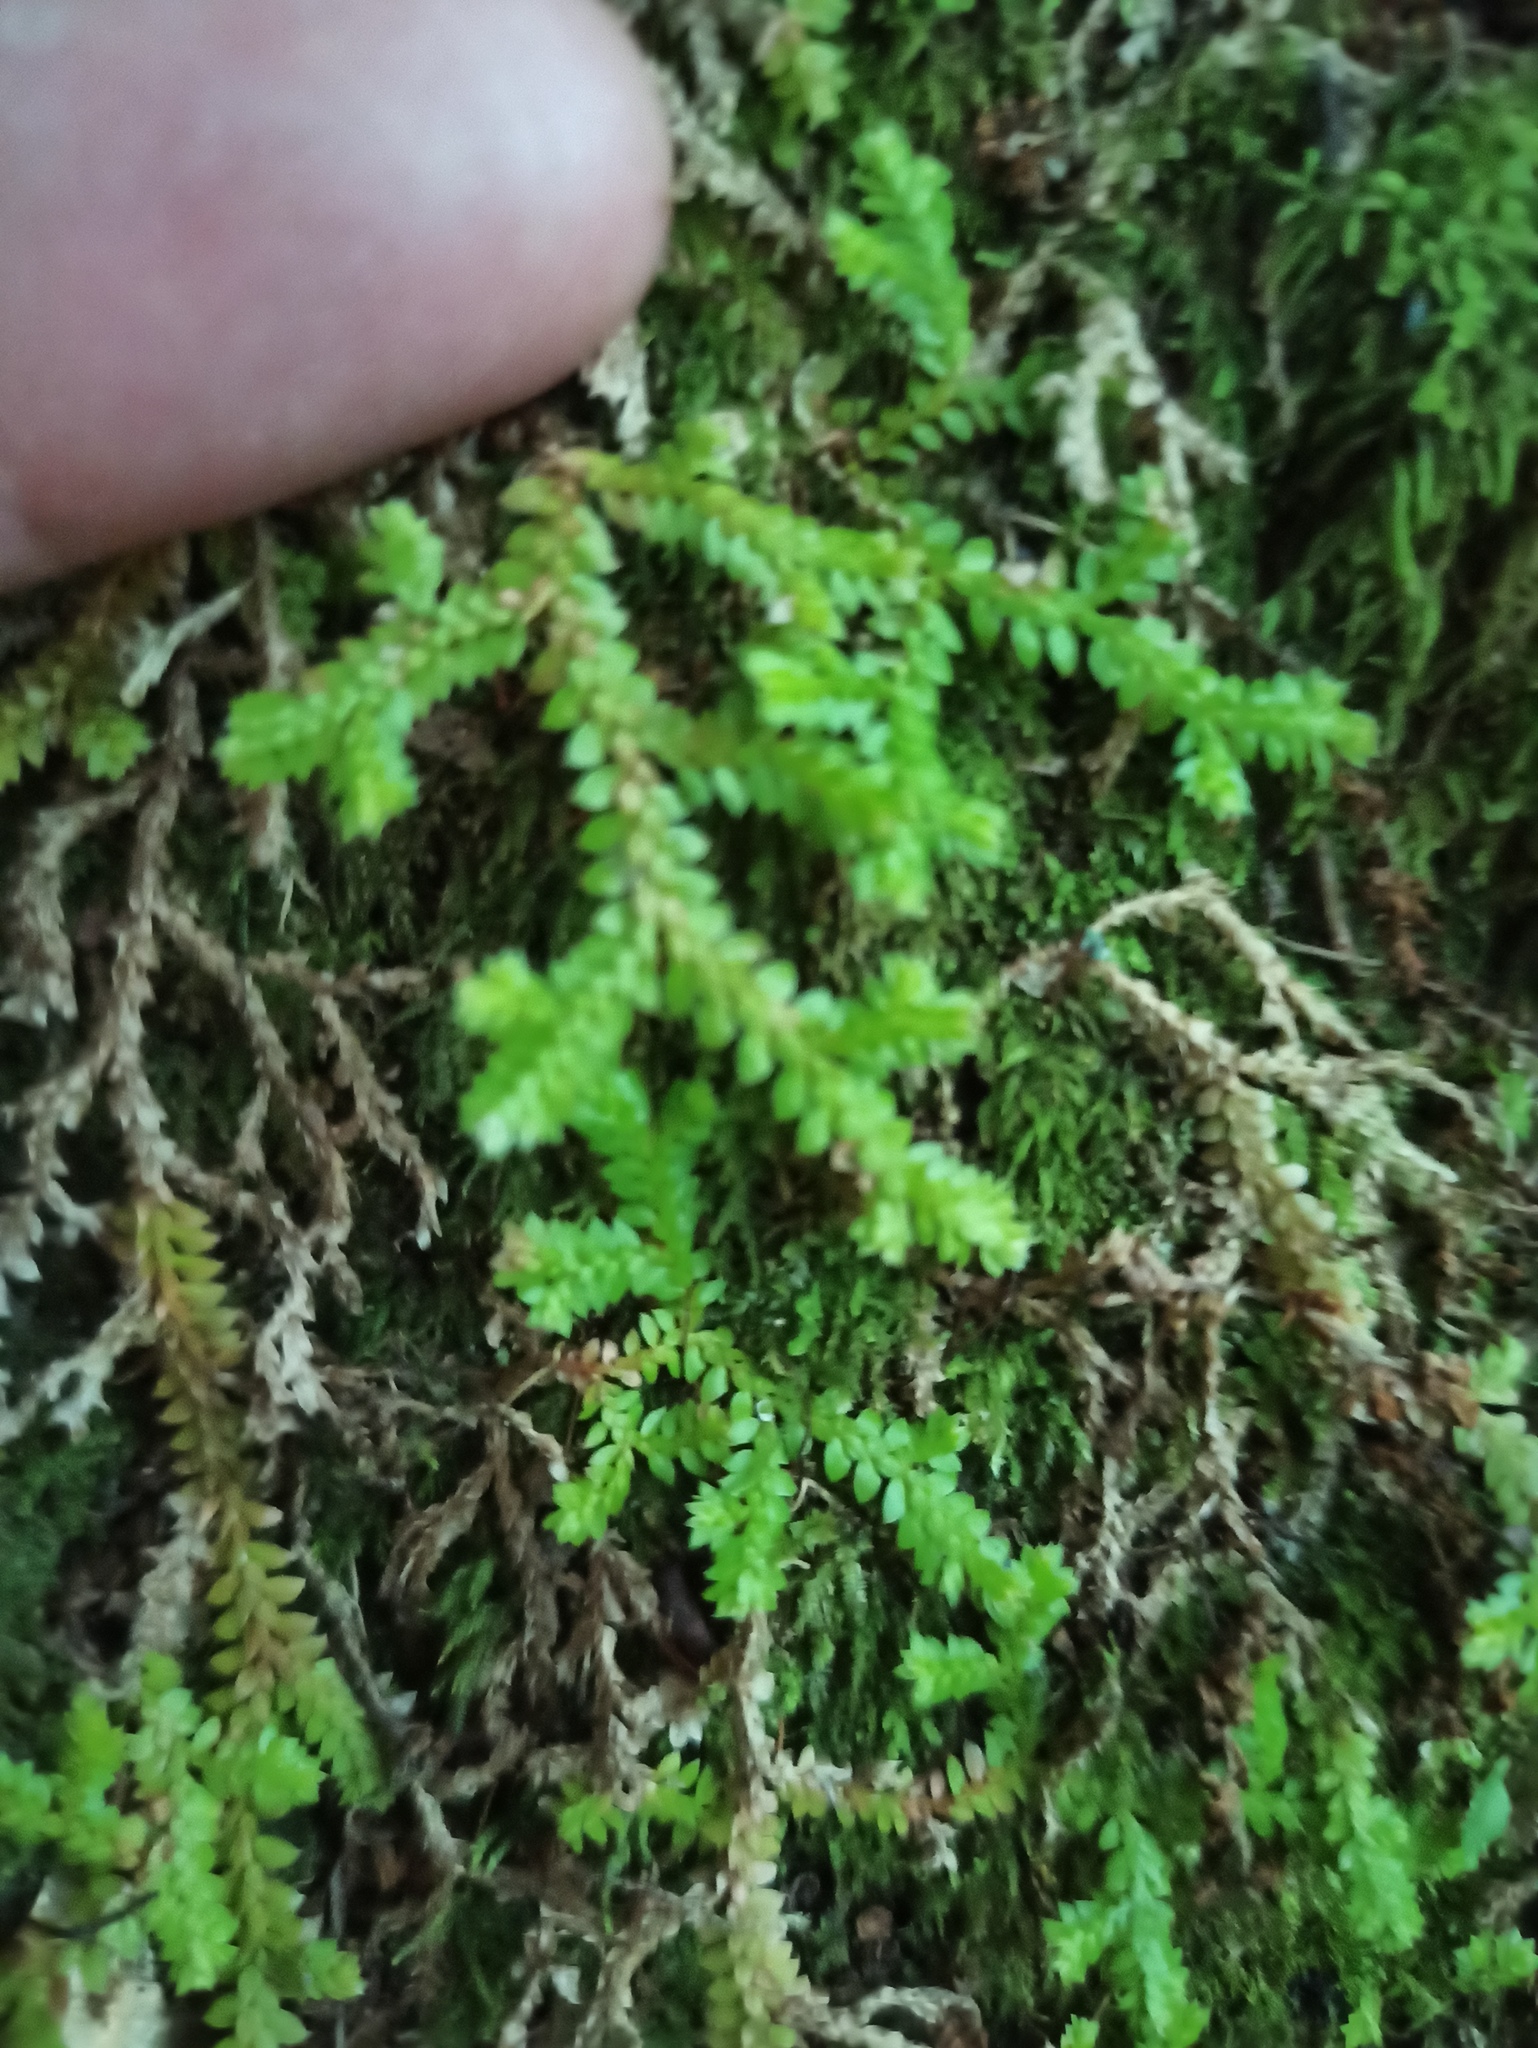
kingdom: Plantae
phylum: Tracheophyta
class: Lycopodiopsida
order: Selaginellales
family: Selaginellaceae
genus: Selaginella
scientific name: Selaginella denticulata
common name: Toothed-leaved clubmoss
